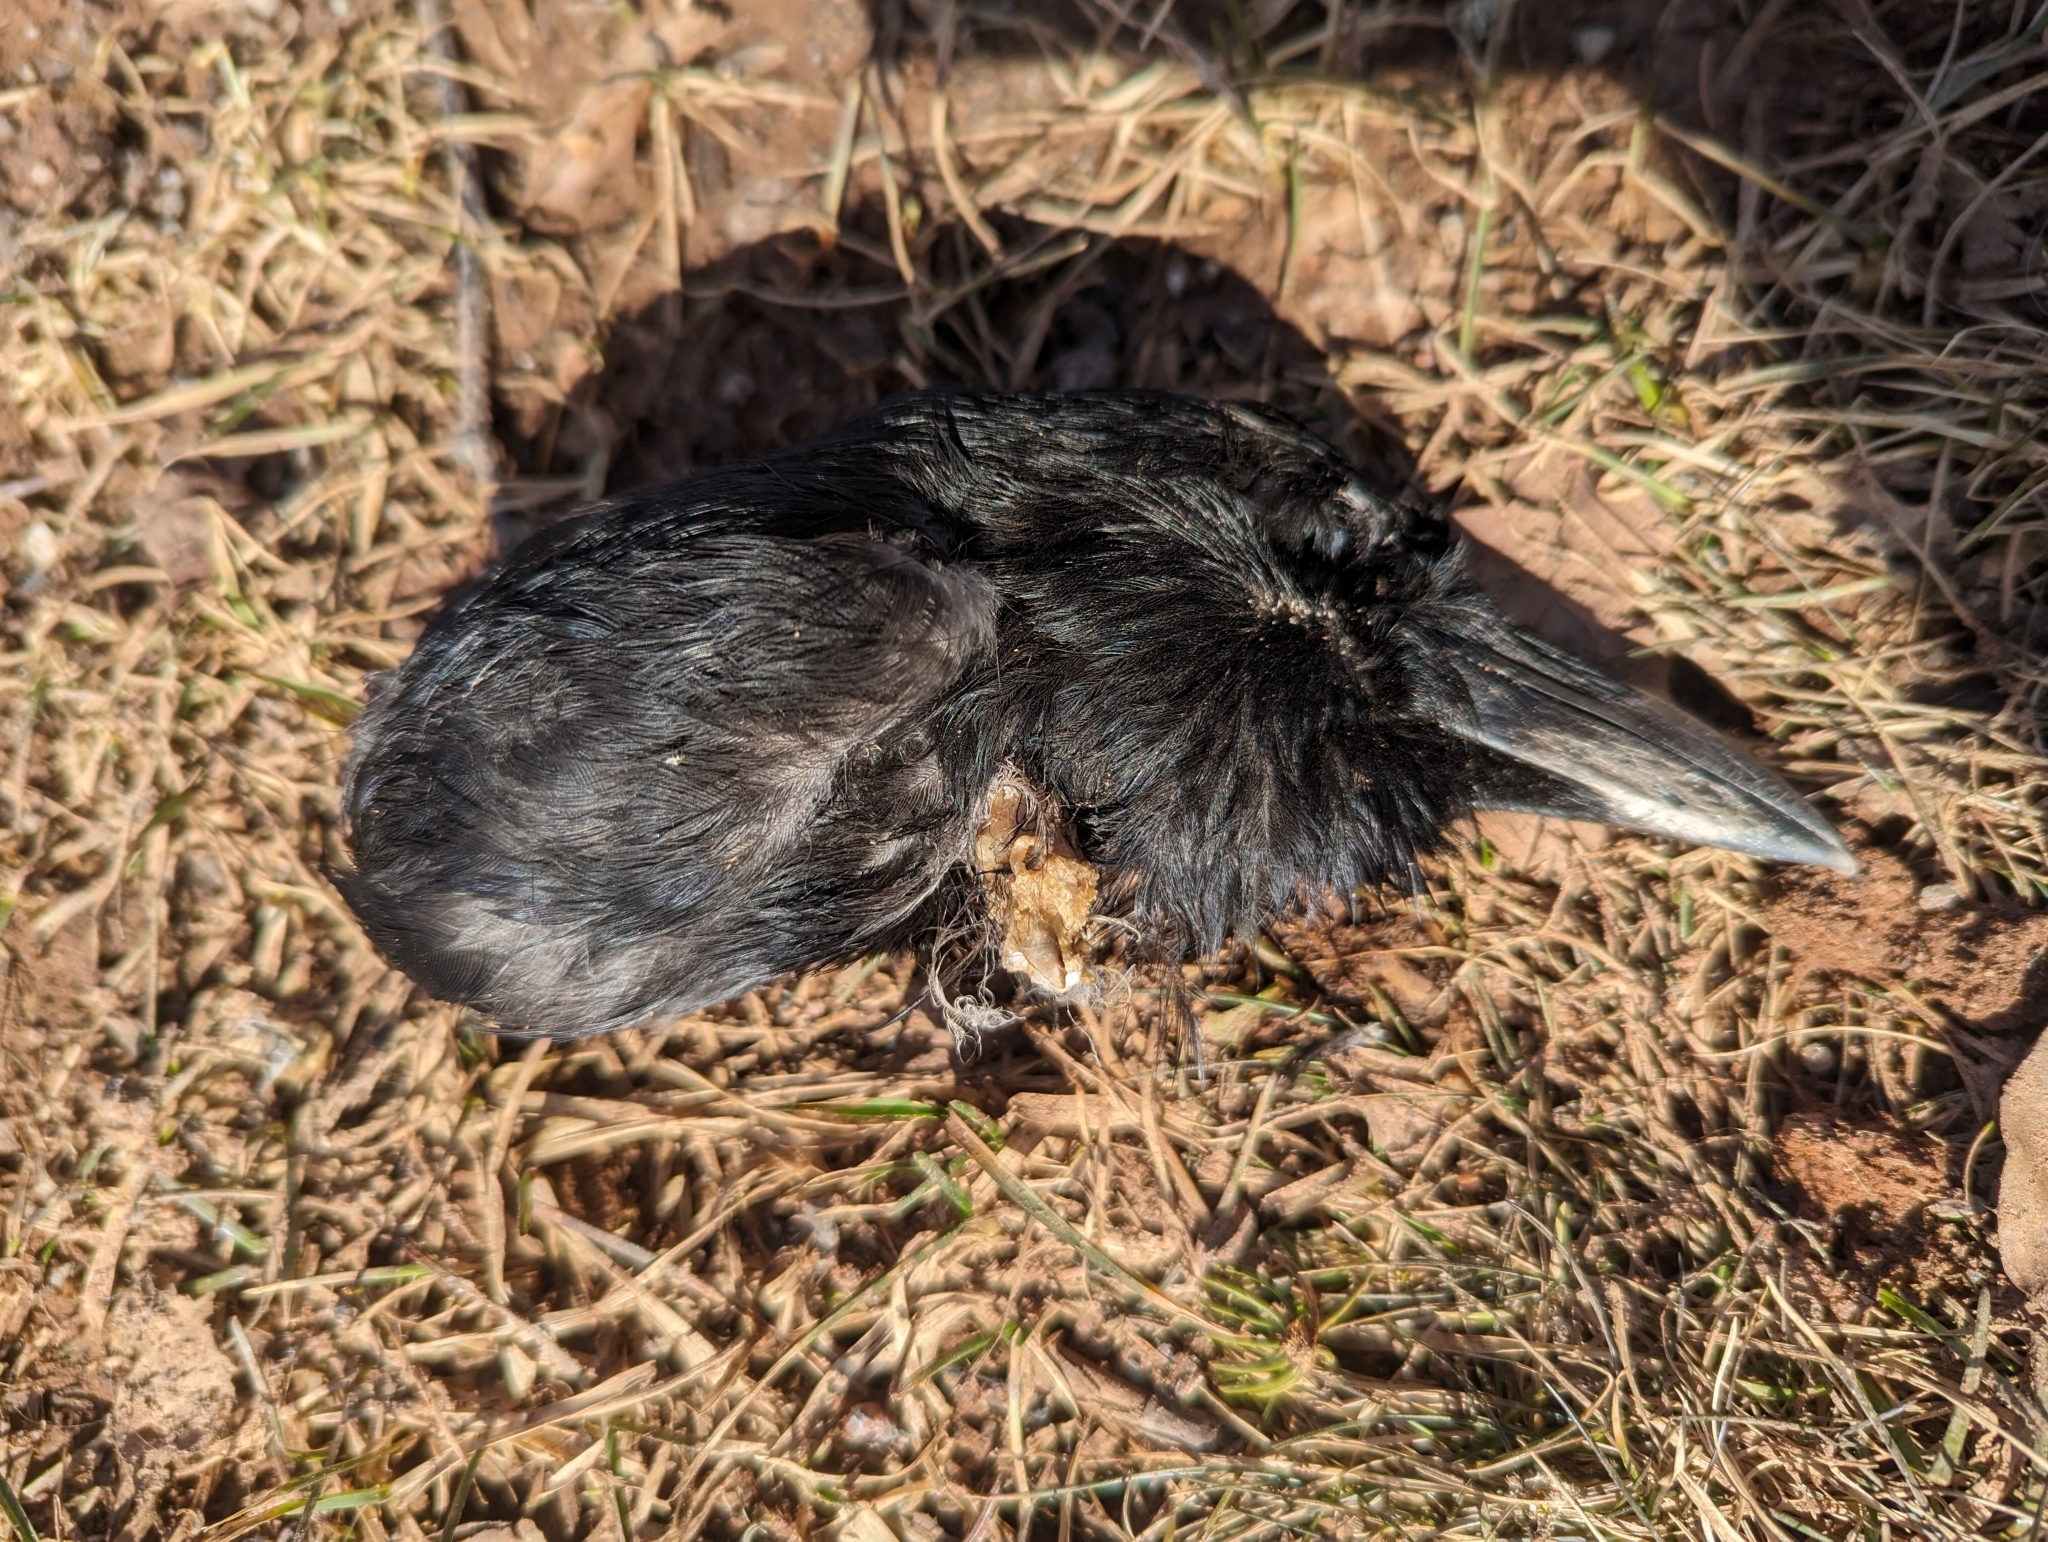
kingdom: Animalia
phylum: Chordata
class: Aves
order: Passeriformes
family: Corvidae
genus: Corvus
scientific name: Corvus brachyrhynchos
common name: American crow
